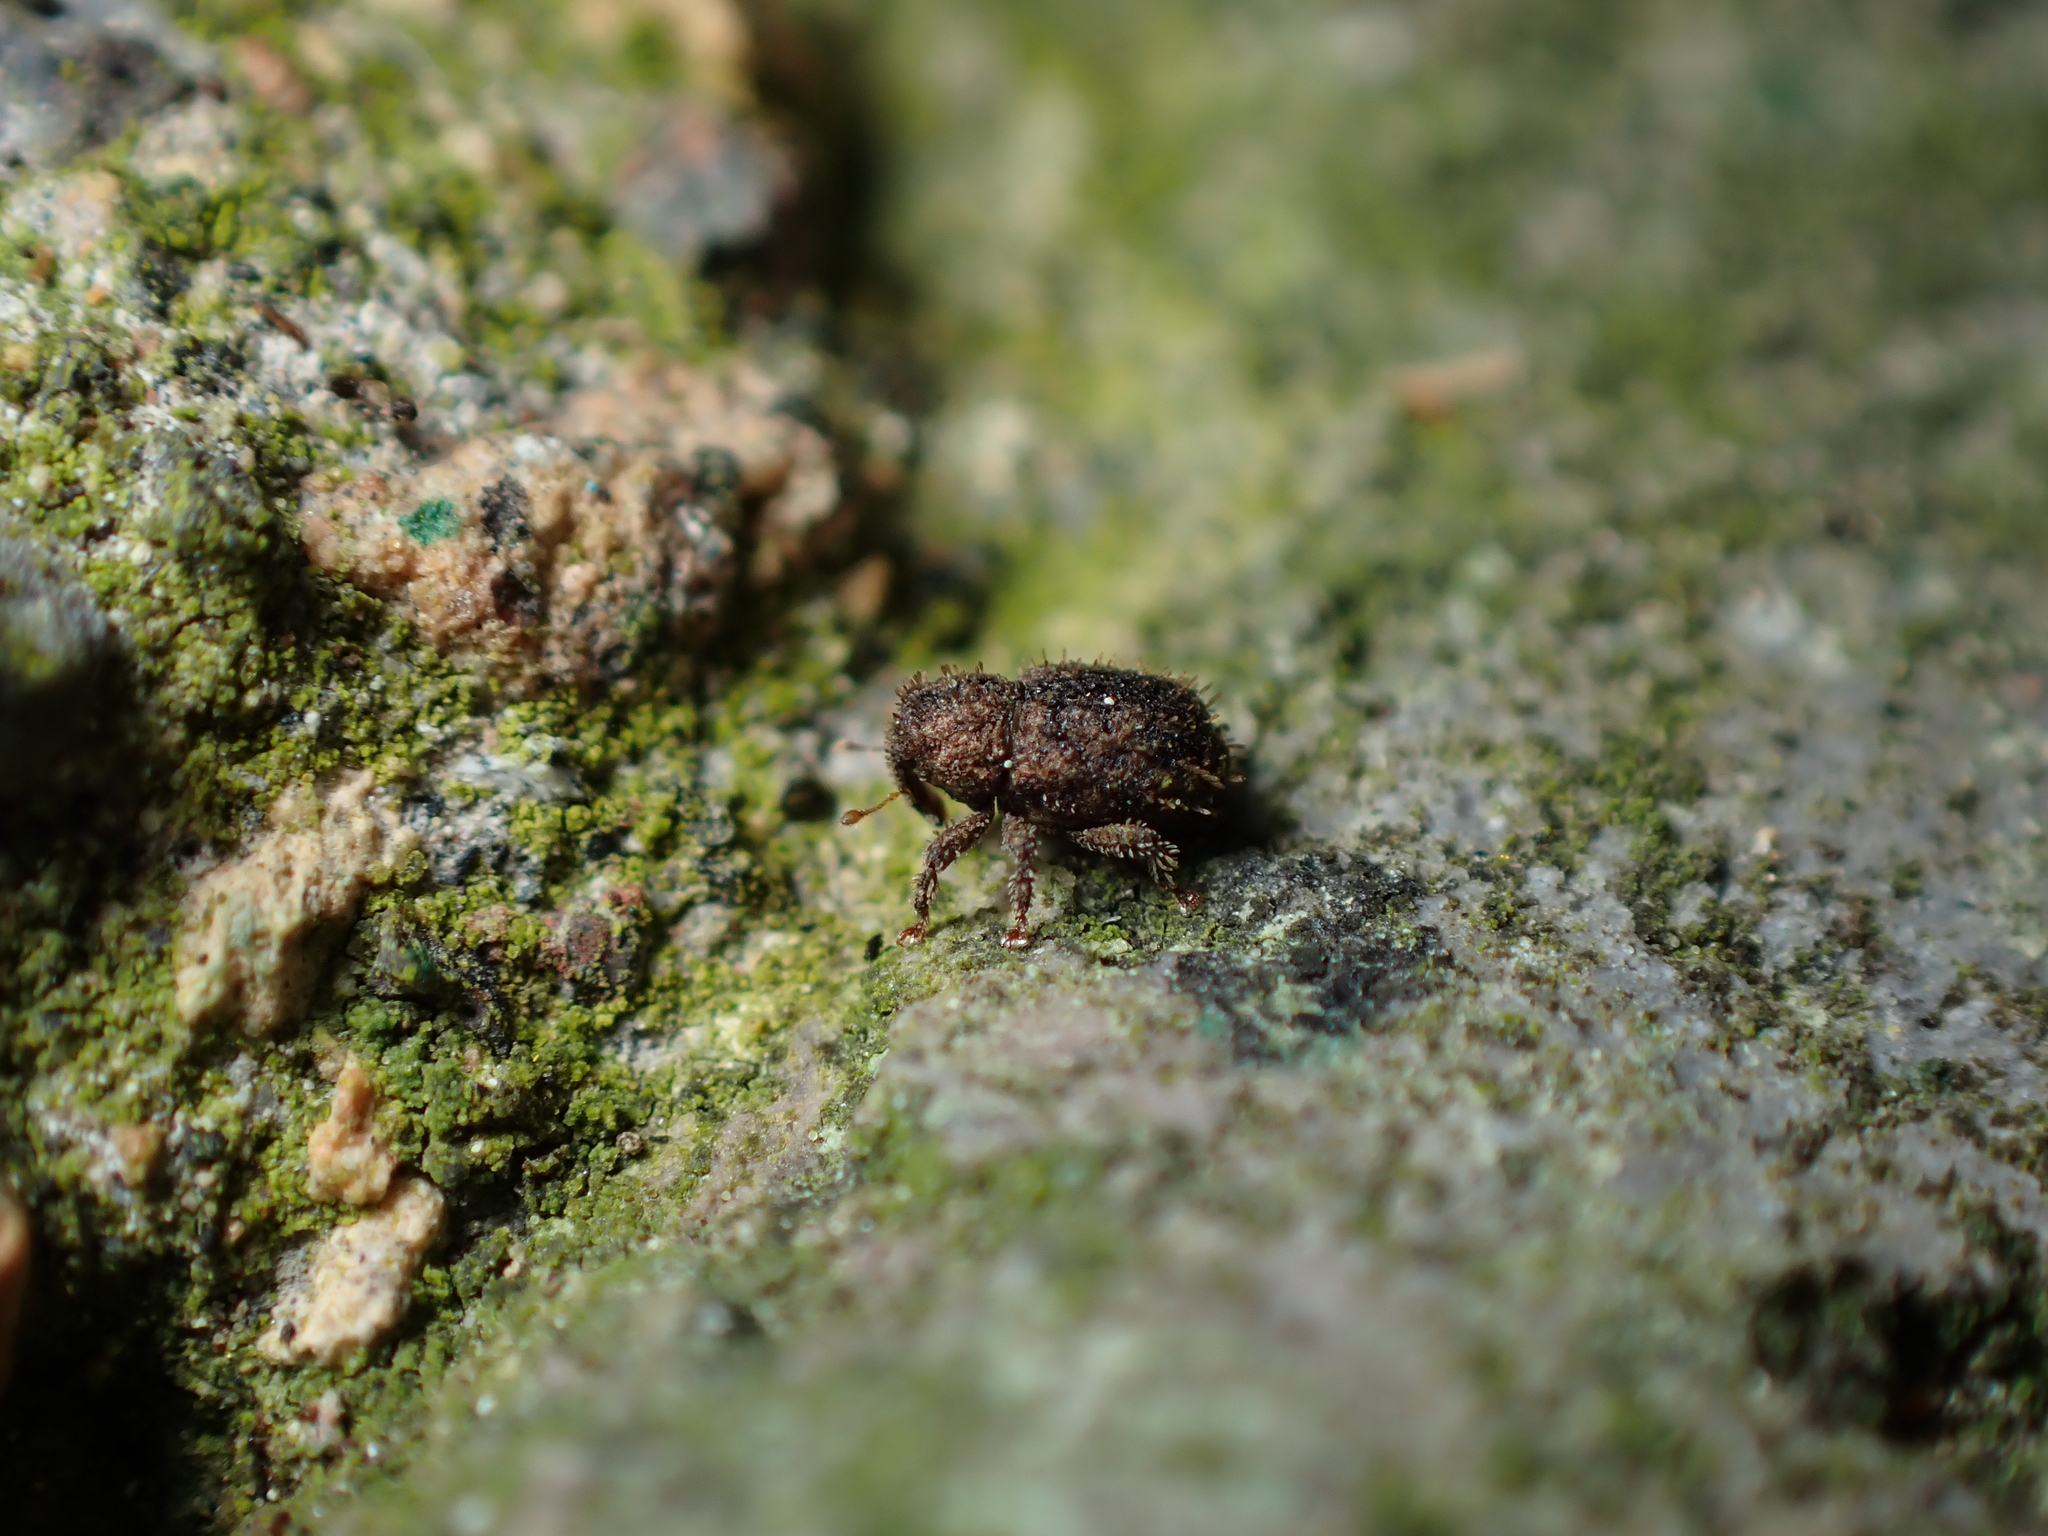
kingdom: Animalia
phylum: Arthropoda
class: Insecta
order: Coleoptera
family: Curculionidae
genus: Andracalles
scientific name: Andracalles horridus
